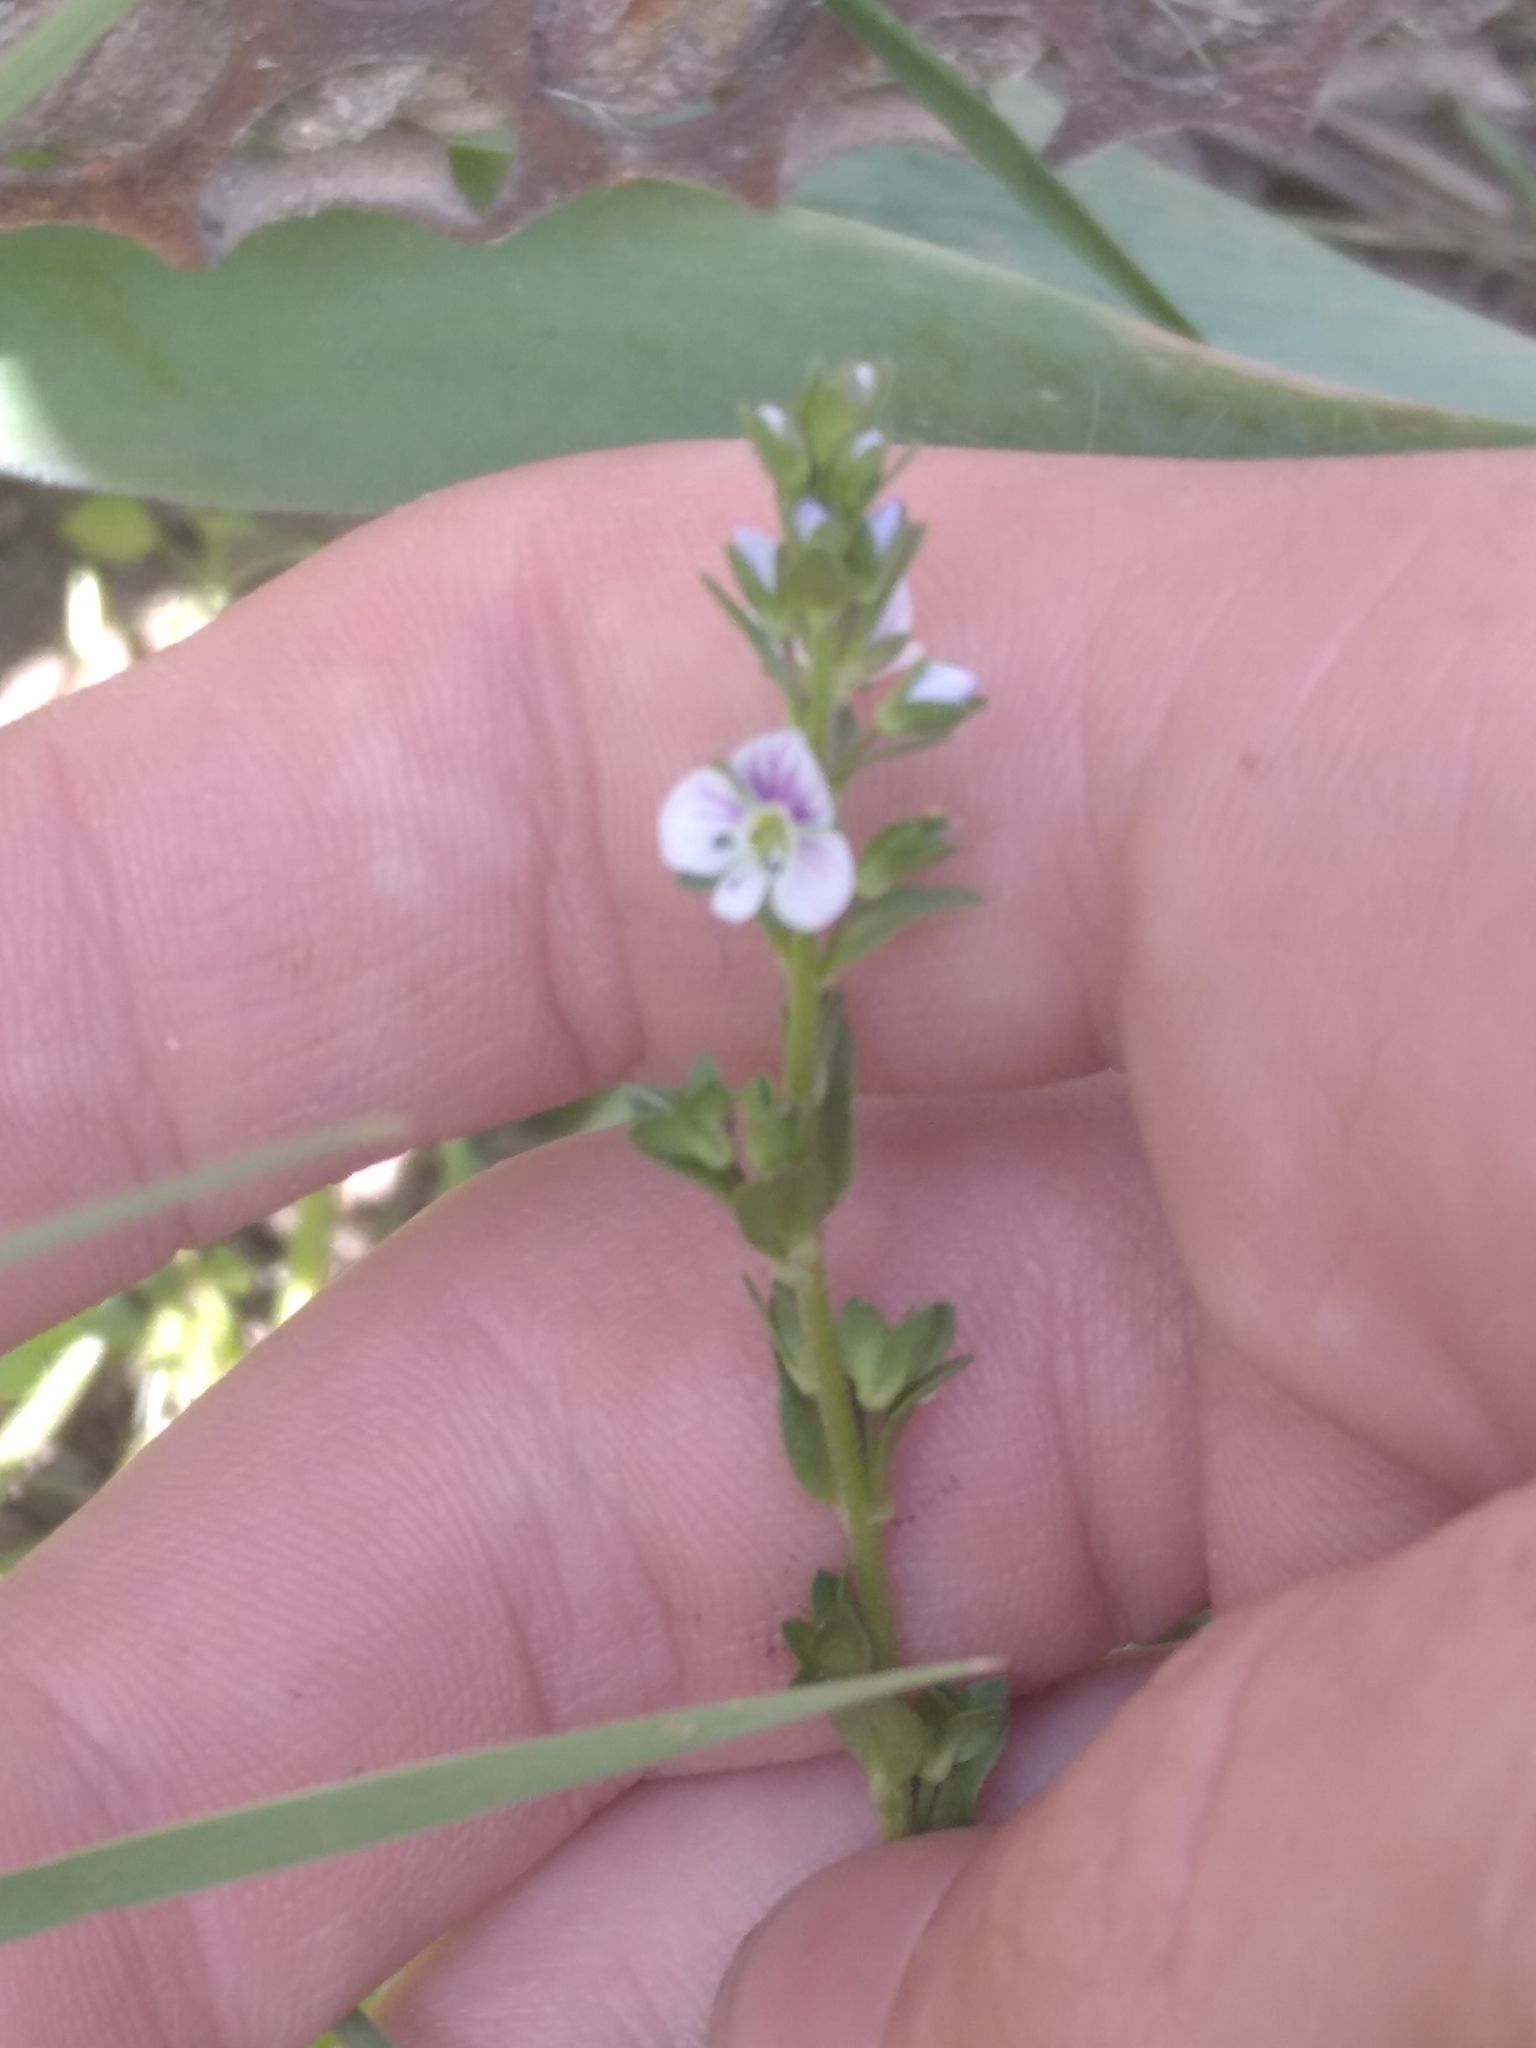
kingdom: Plantae
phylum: Tracheophyta
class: Magnoliopsida
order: Lamiales
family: Plantaginaceae
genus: Veronica
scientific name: Veronica serpyllifolia
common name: Thyme-leaved speedwell
